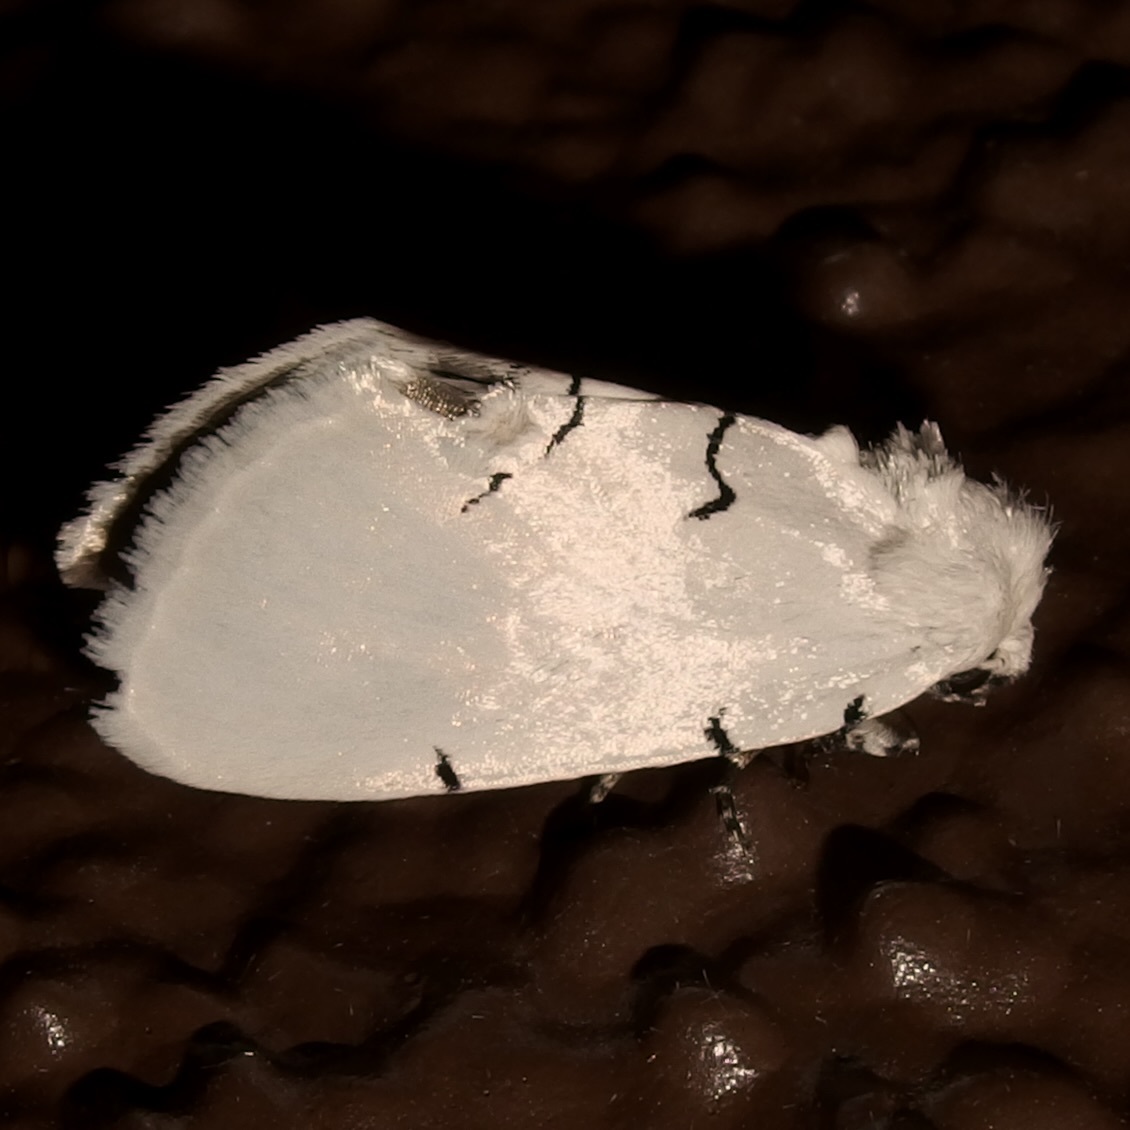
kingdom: Animalia
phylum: Arthropoda
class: Insecta
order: Lepidoptera
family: Noctuidae
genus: Hemioslaria
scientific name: Hemioslaria pima
